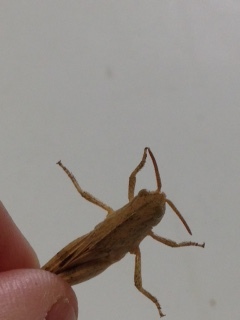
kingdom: Animalia
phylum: Arthropoda
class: Insecta
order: Orthoptera
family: Acrididae
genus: Chortophaga
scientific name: Chortophaga viridifasciata
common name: Green-striped grasshopper
